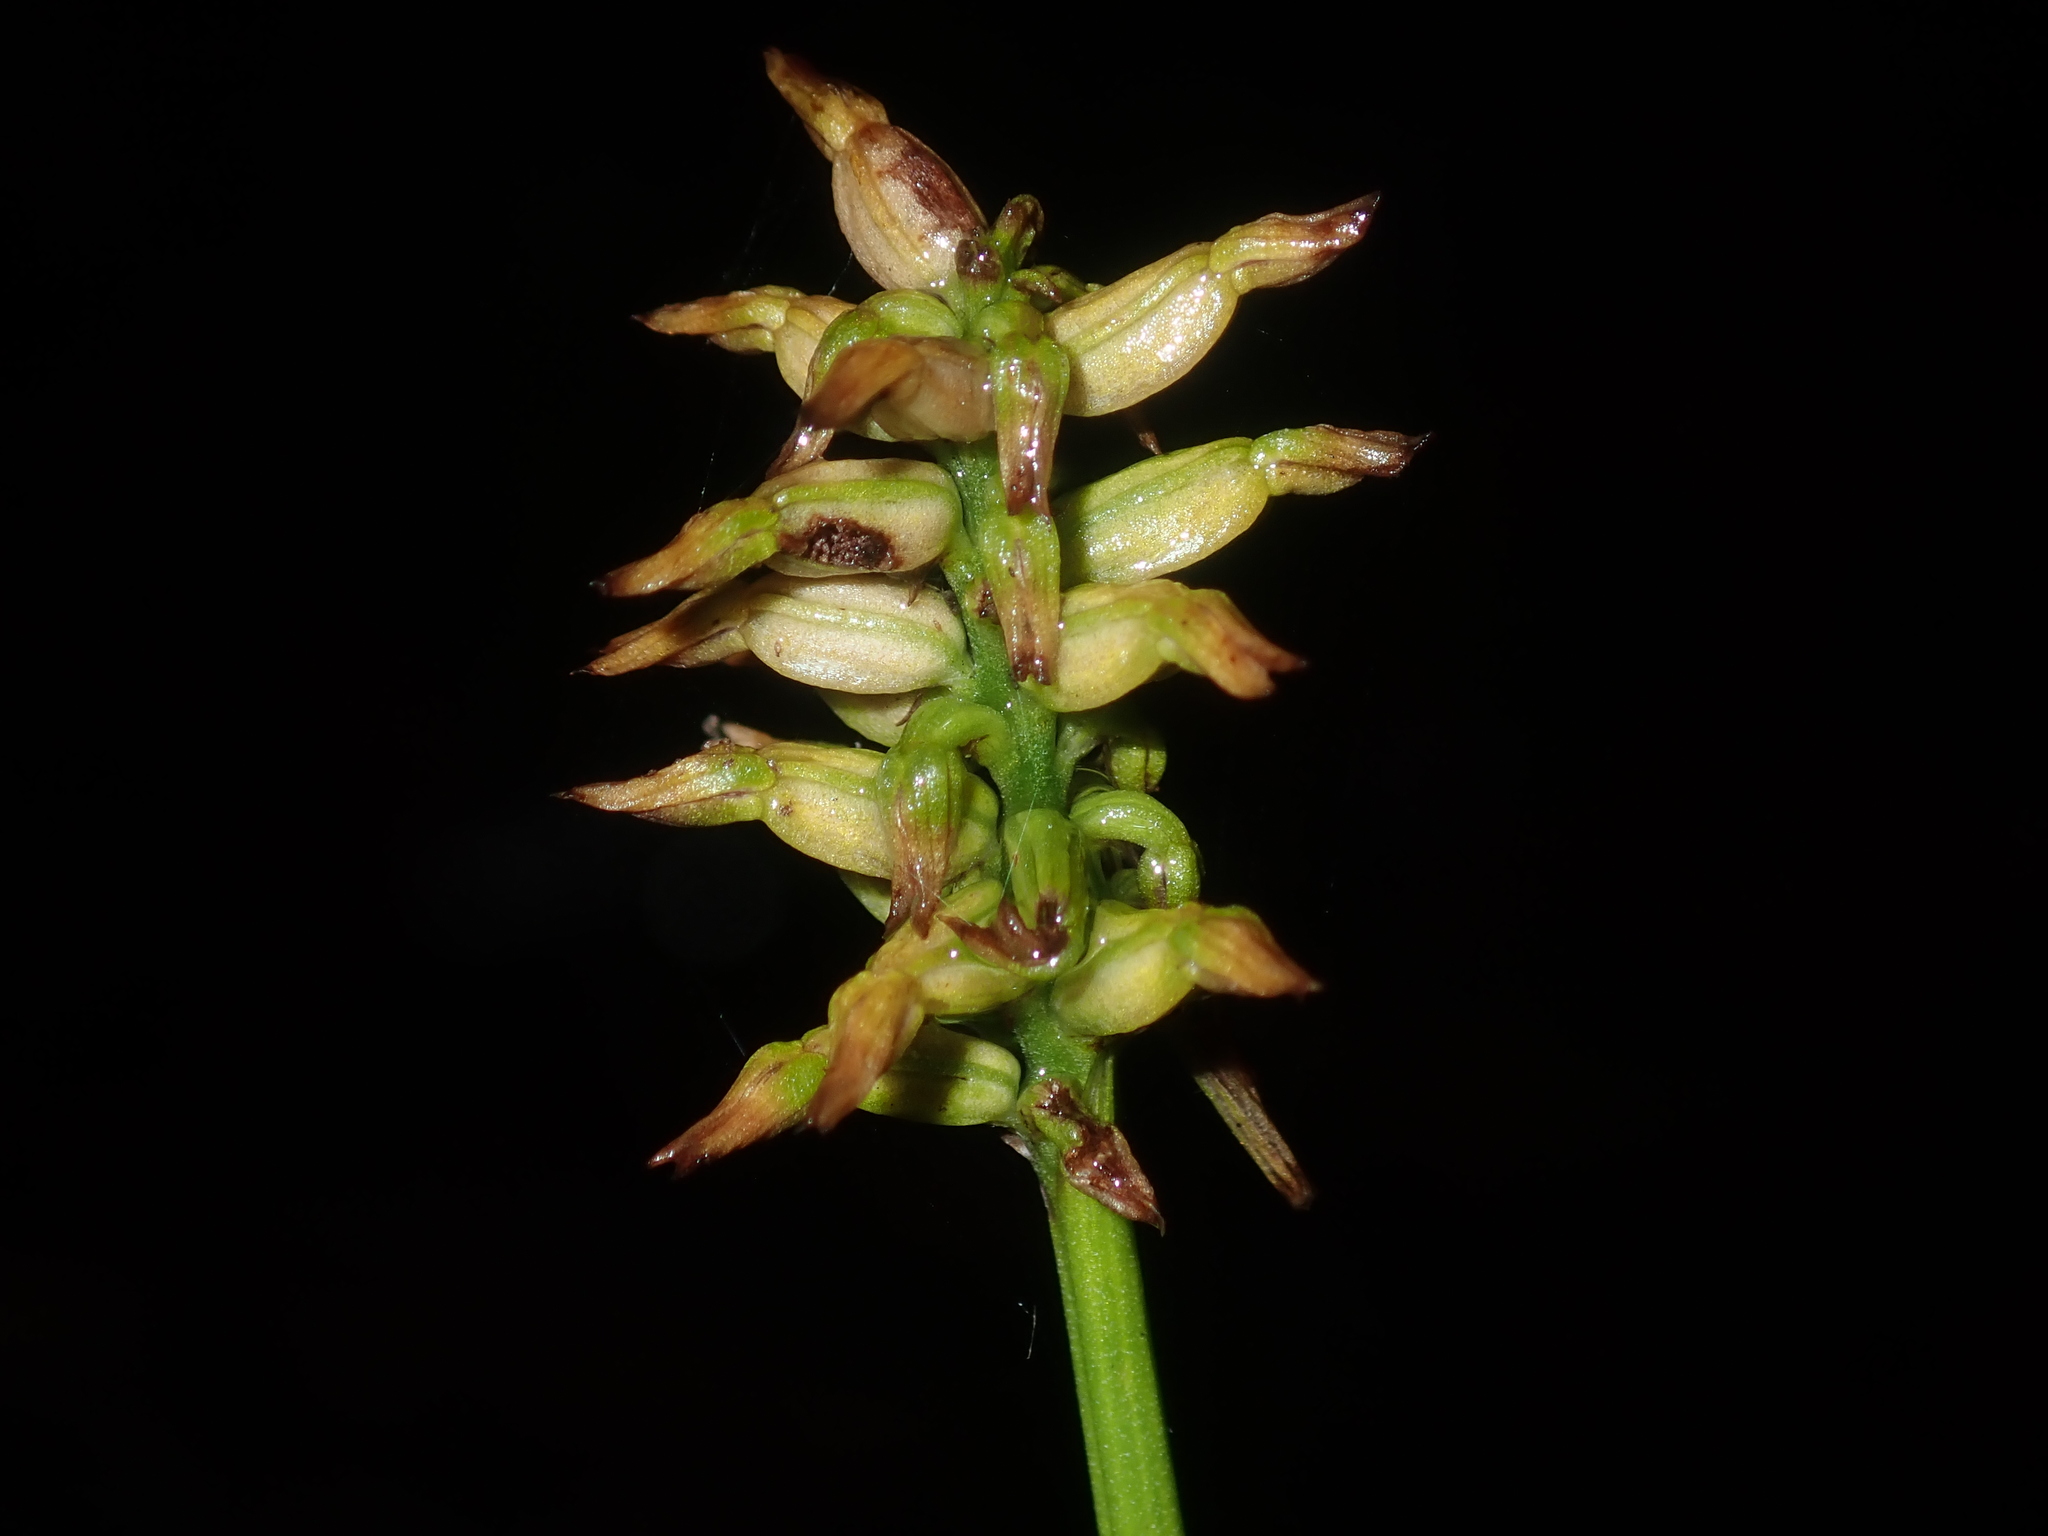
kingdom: Plantae
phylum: Tracheophyta
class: Liliopsida
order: Asparagales
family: Orchidaceae
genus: Genoplesium
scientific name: Genoplesium
